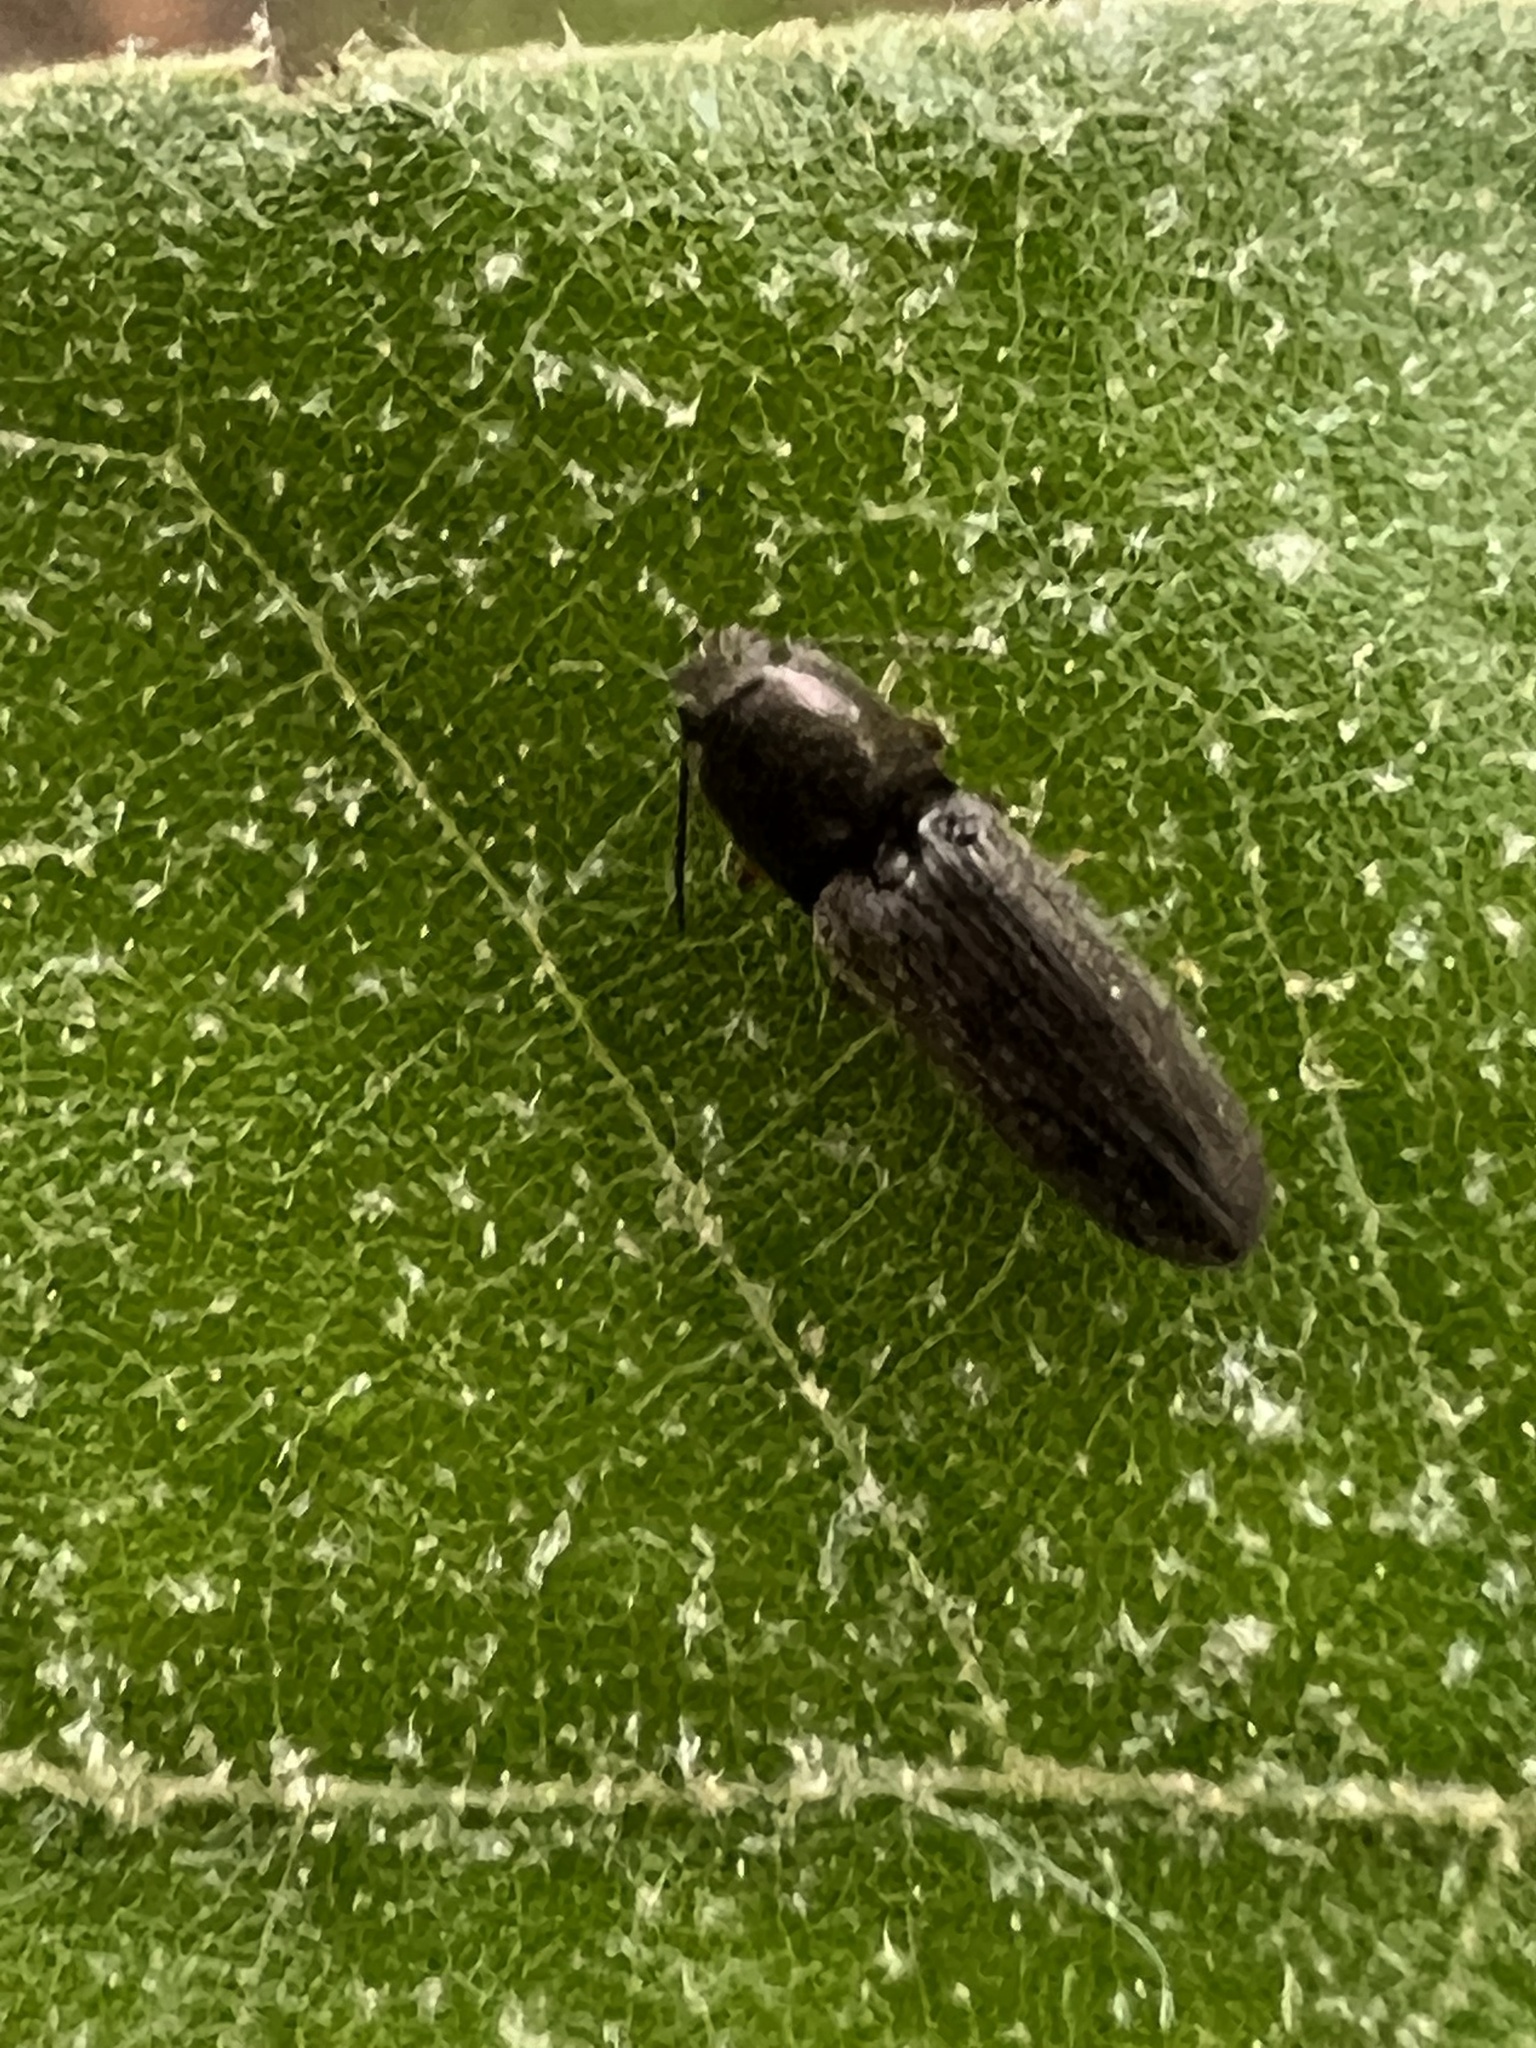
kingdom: Animalia
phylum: Arthropoda
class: Insecta
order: Coleoptera
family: Elateridae
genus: Limonius
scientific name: Limonius quercinus
